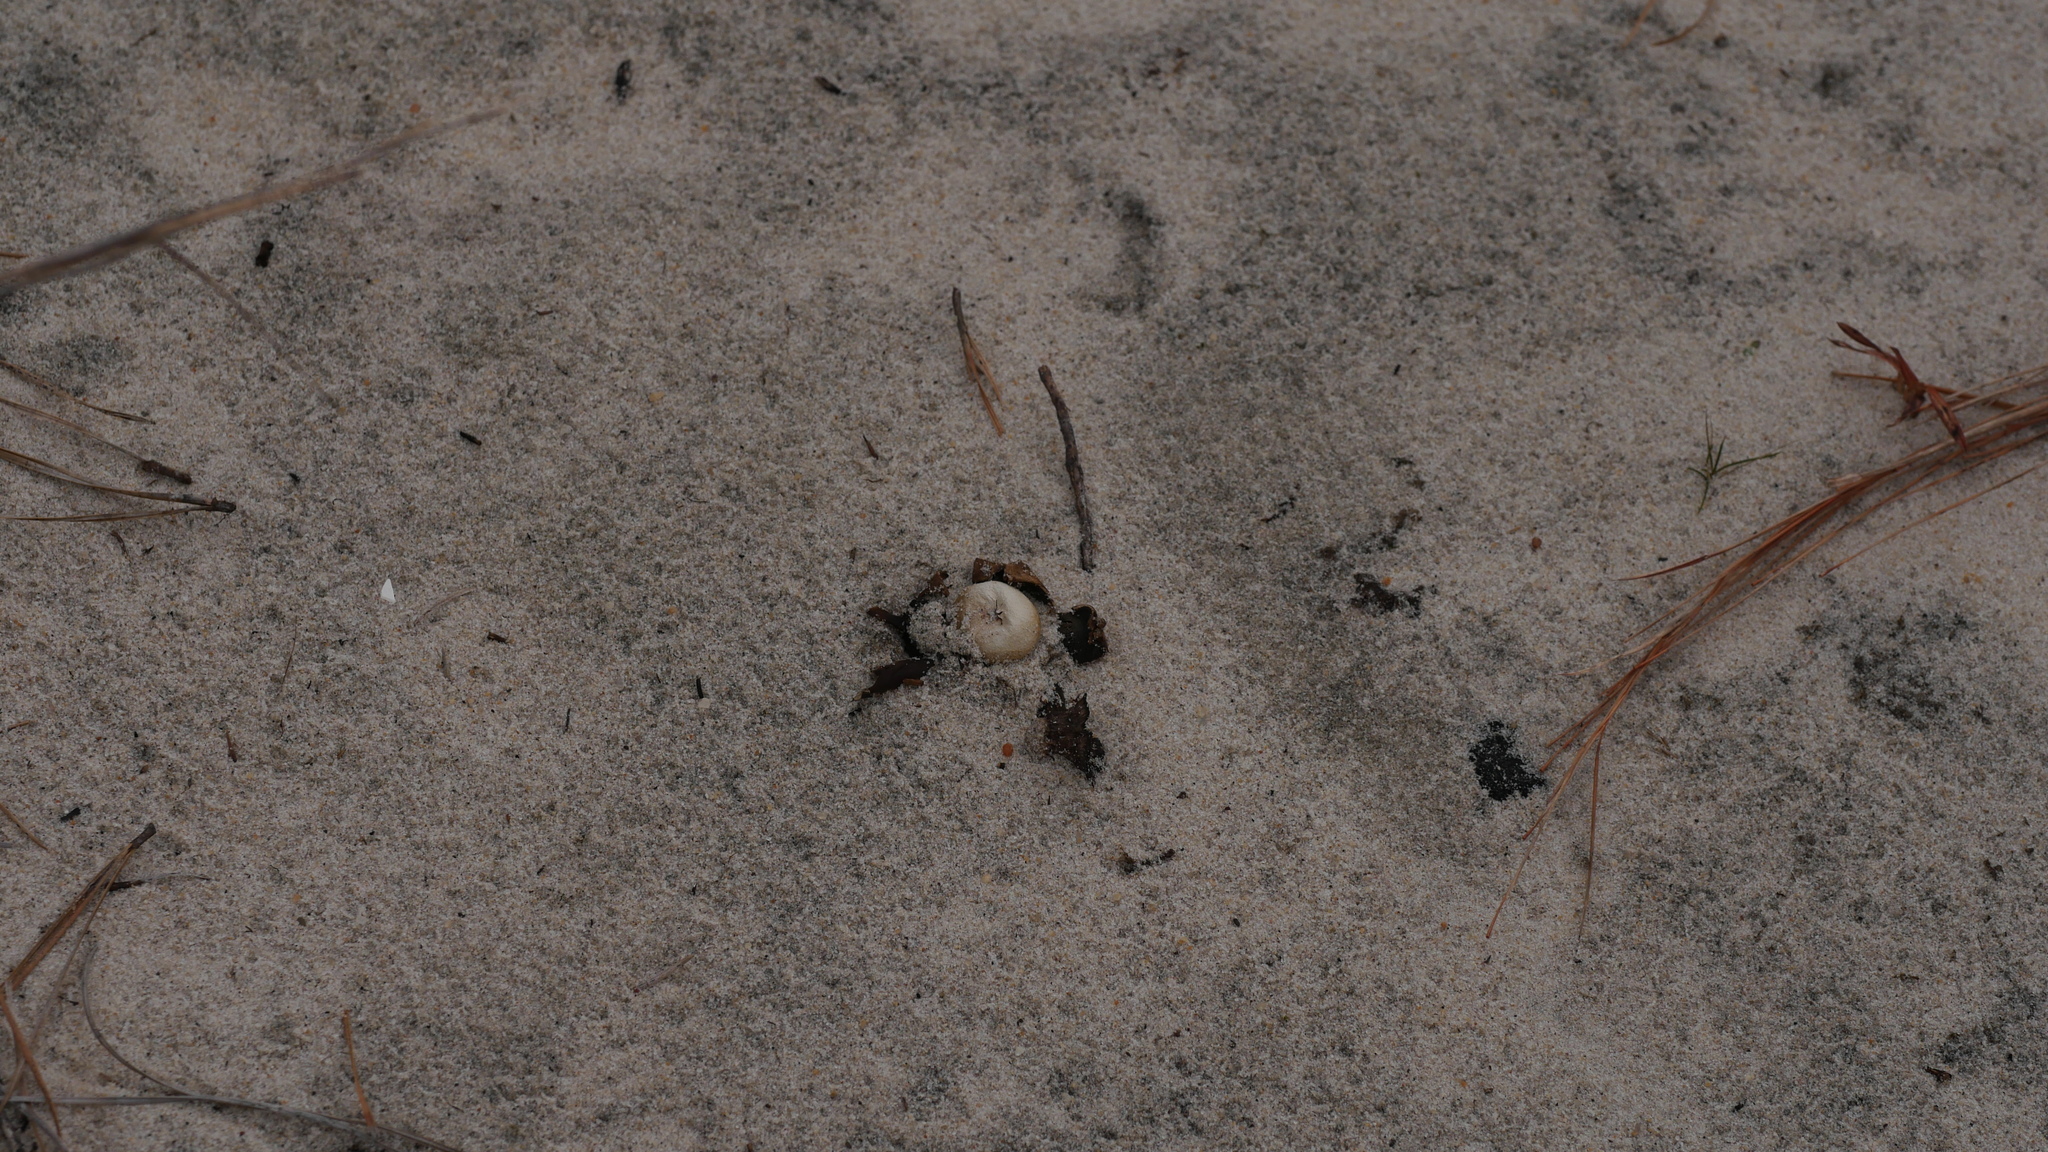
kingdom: Fungi
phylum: Basidiomycota
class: Agaricomycetes
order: Boletales
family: Diplocystidiaceae
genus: Astraeus
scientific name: Astraeus smithii
